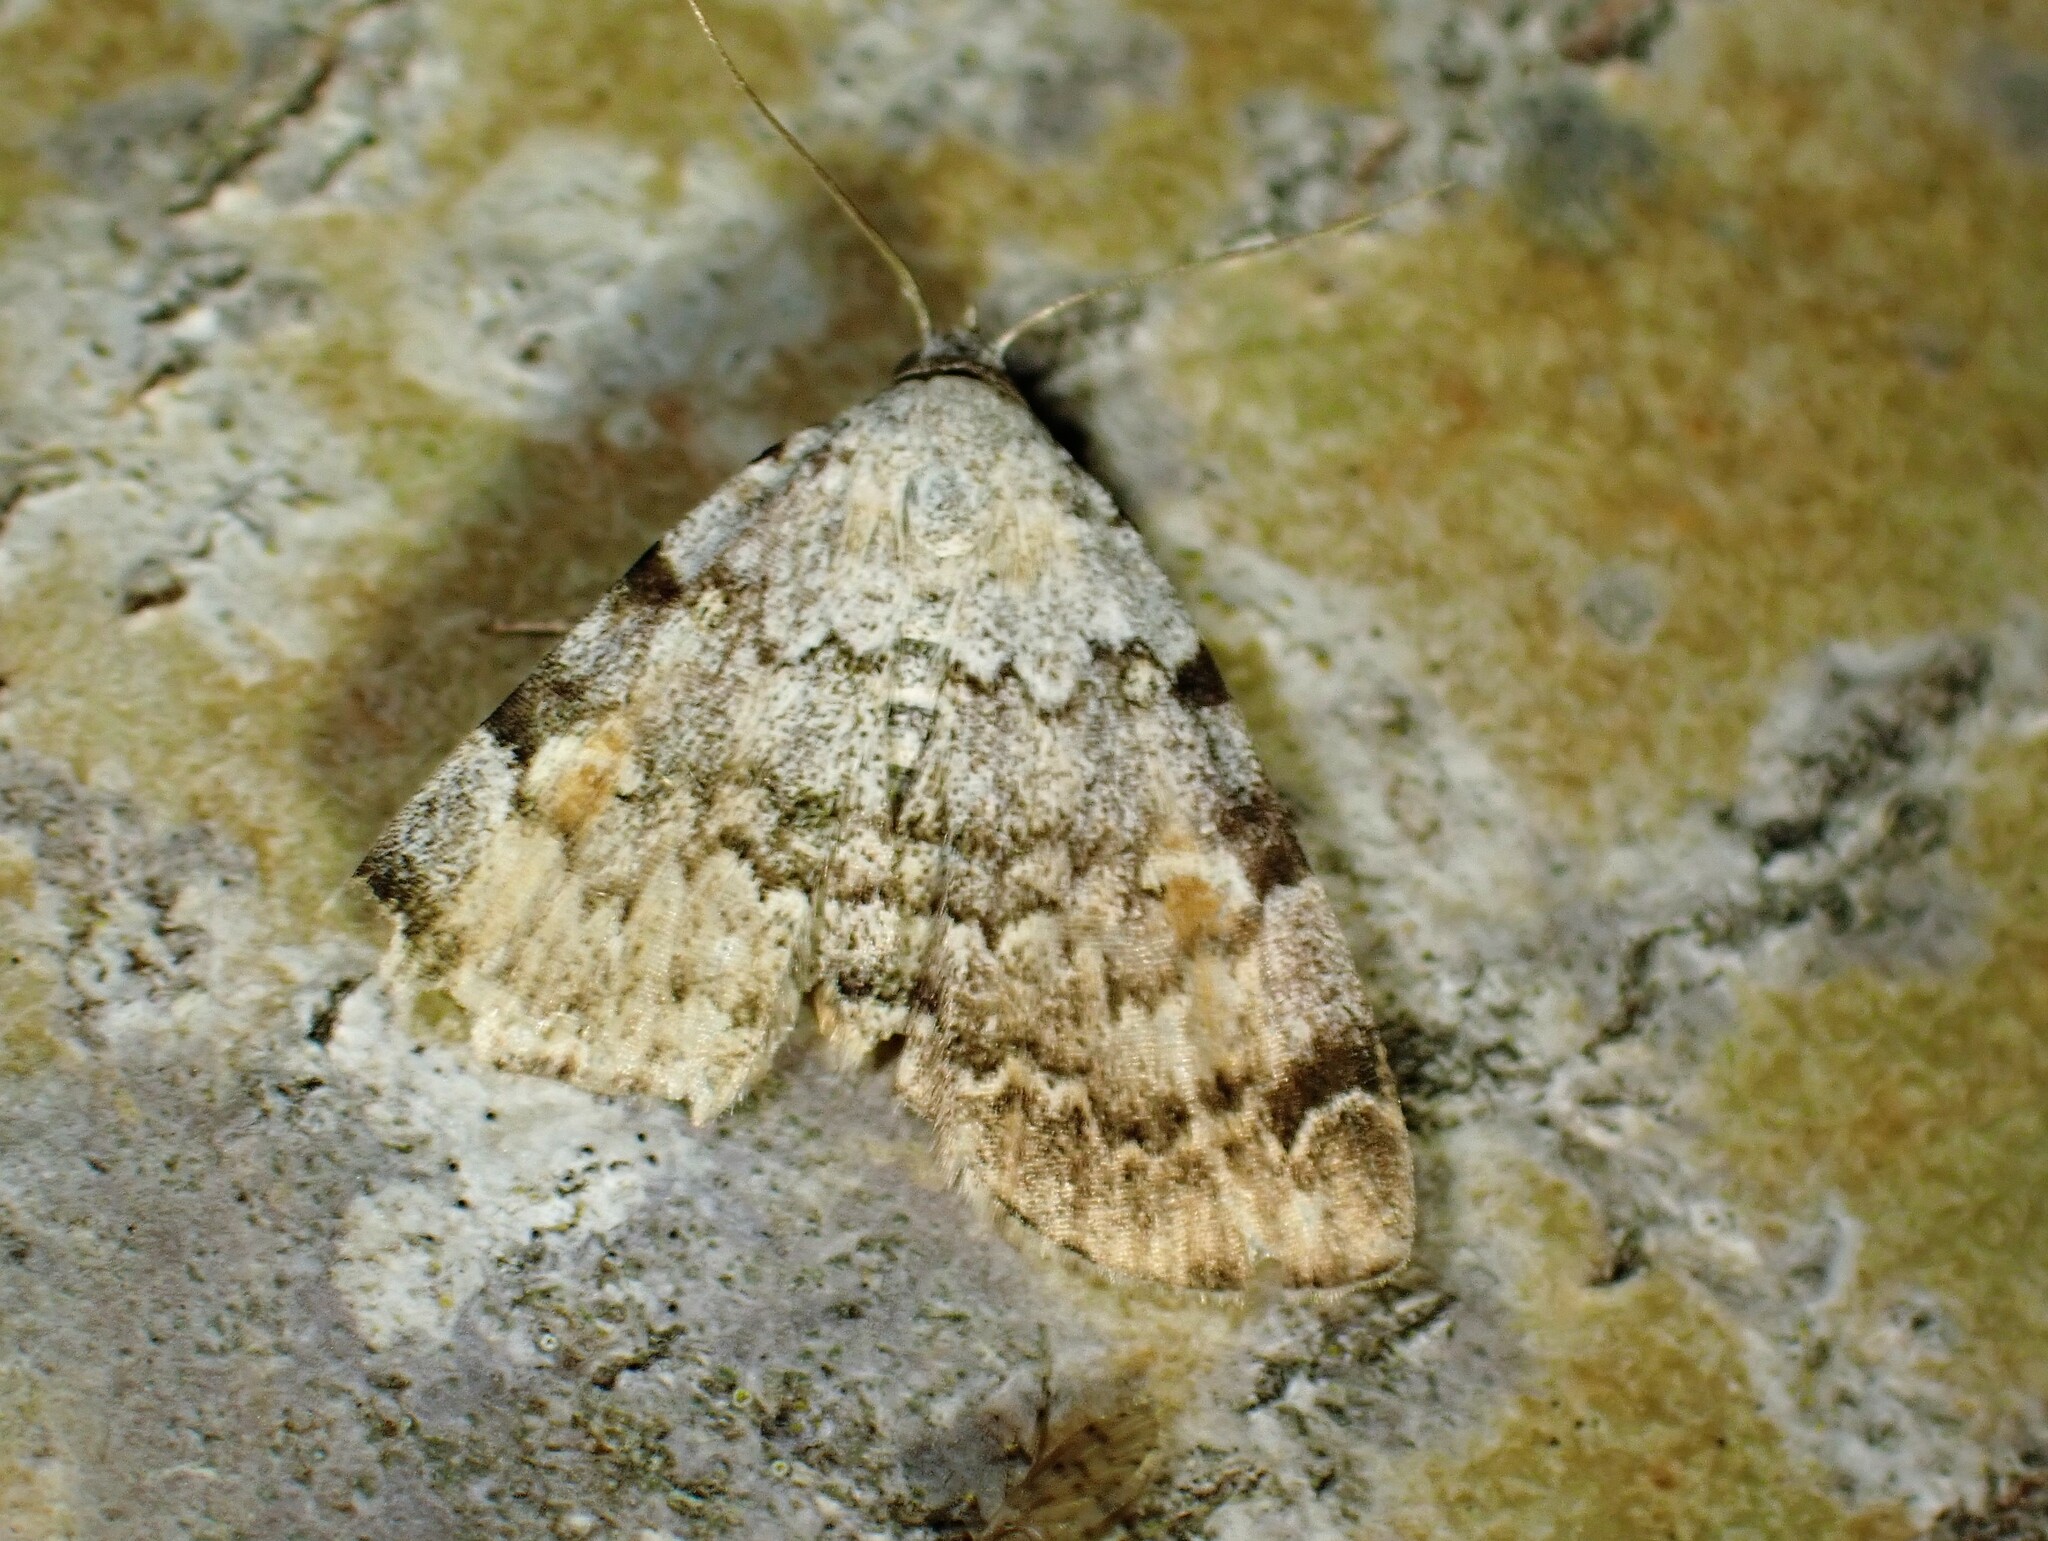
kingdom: Animalia
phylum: Arthropoda
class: Insecta
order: Lepidoptera
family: Erebidae
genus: Idia
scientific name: Idia americalis
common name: American idia moth
